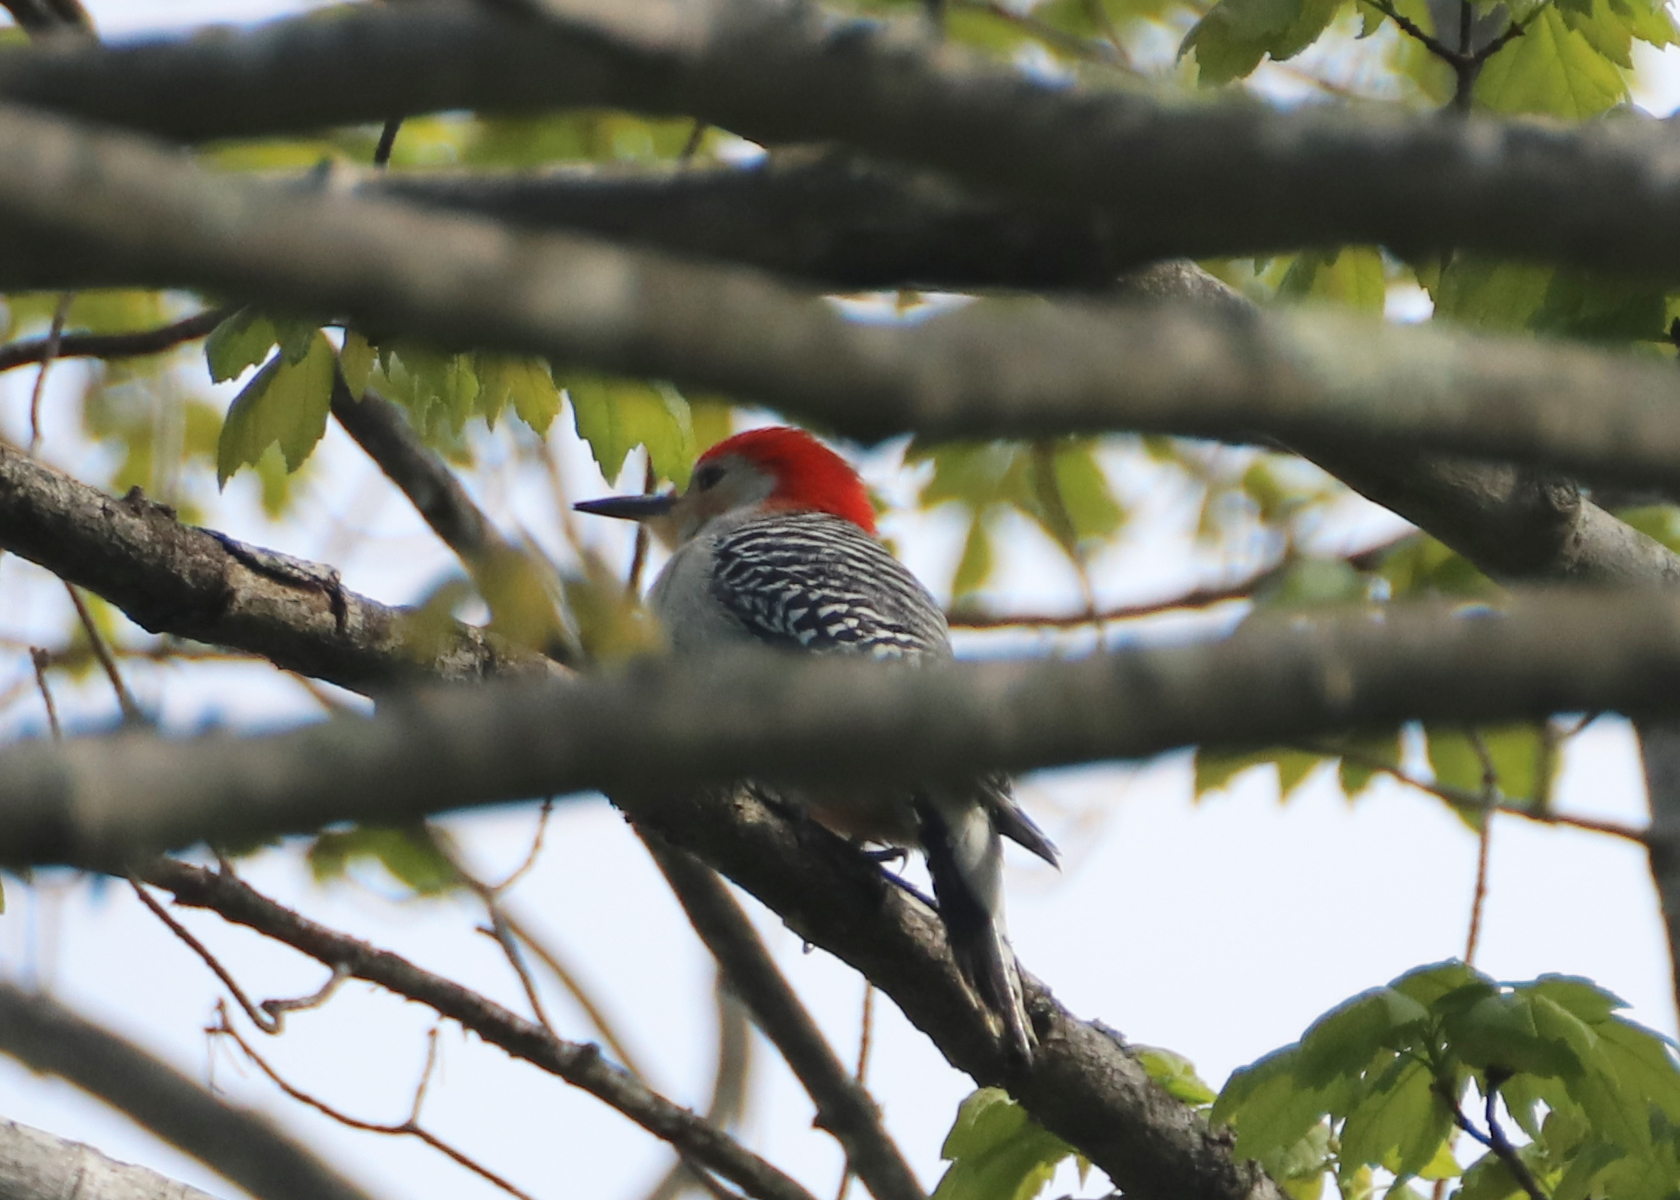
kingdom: Animalia
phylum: Chordata
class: Aves
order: Piciformes
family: Picidae
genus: Melanerpes
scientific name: Melanerpes carolinus
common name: Red-bellied woodpecker
